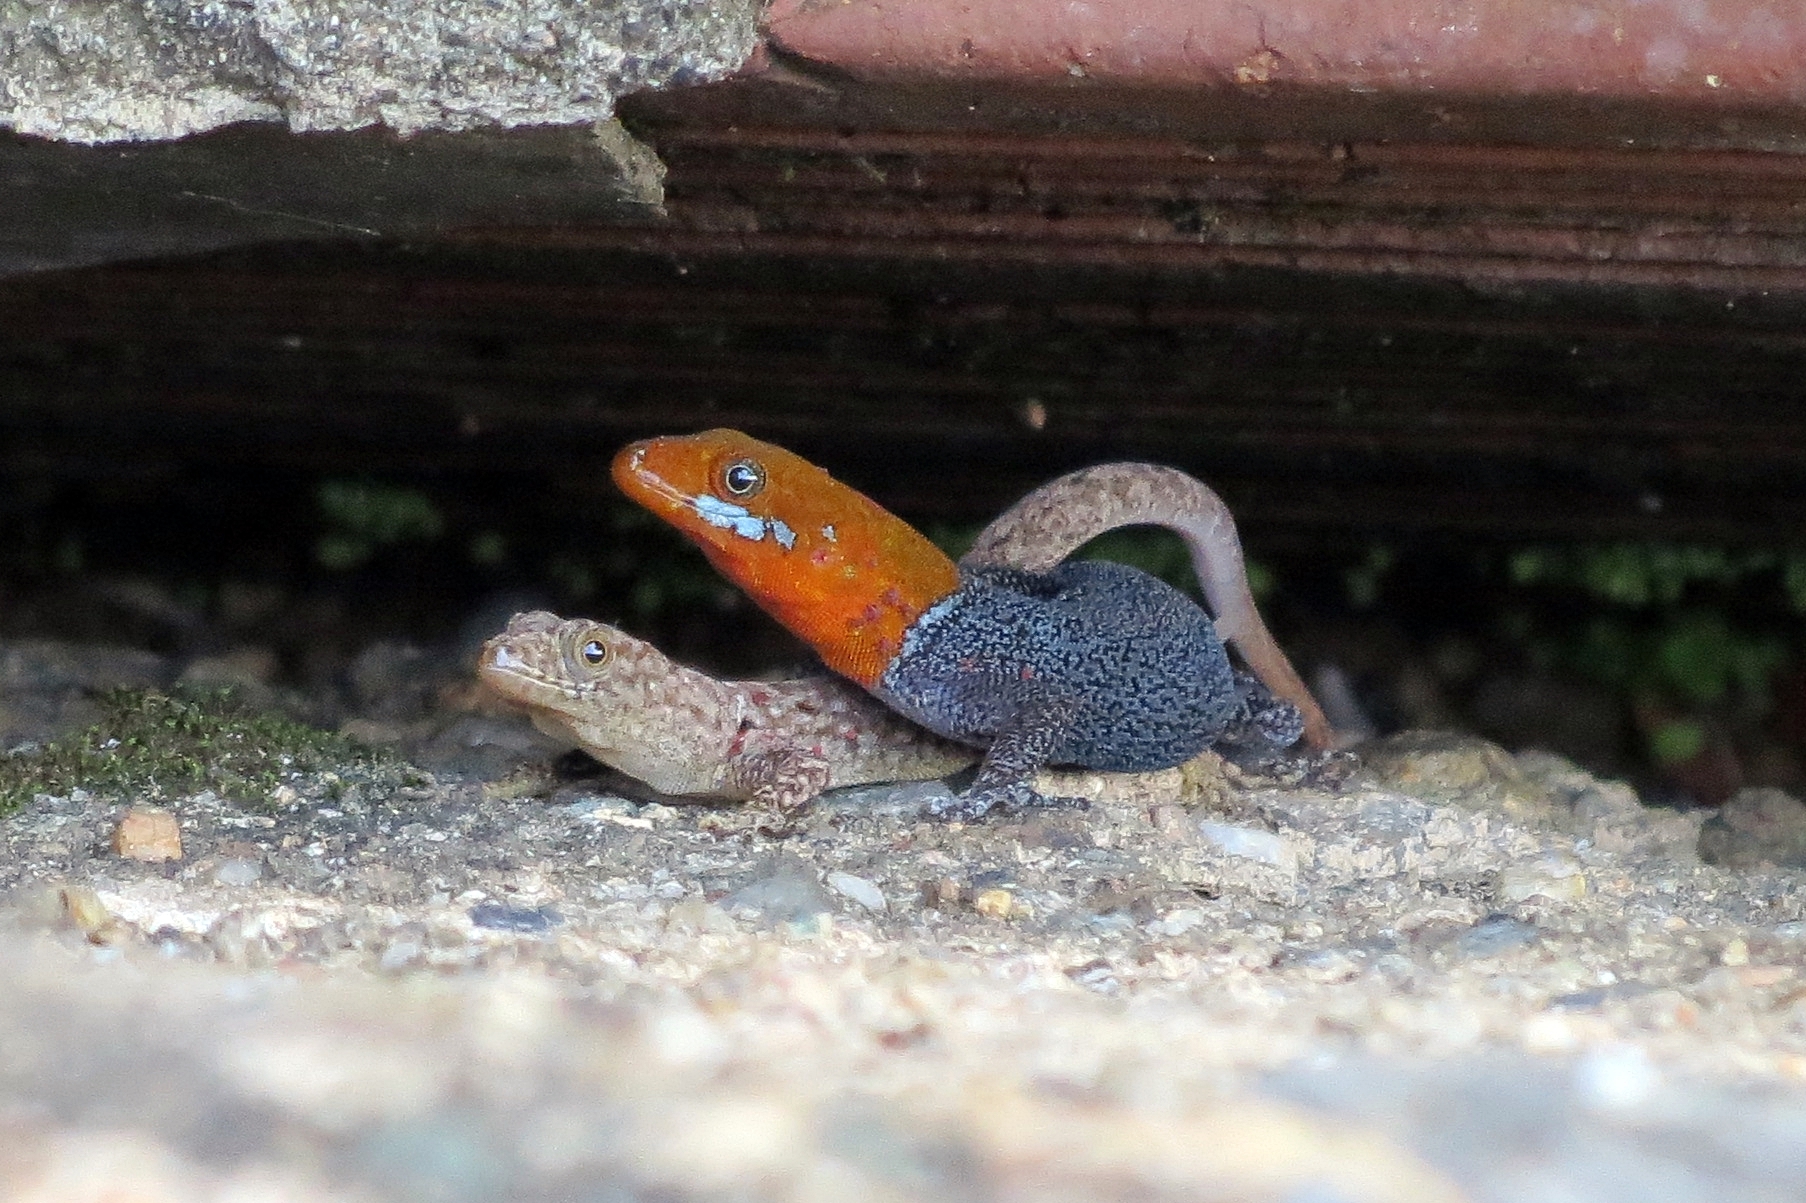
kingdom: Animalia
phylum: Chordata
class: Squamata
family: Sphaerodactylidae
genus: Gonatodes
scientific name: Gonatodes albogularis
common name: Yellow-headed gecko
